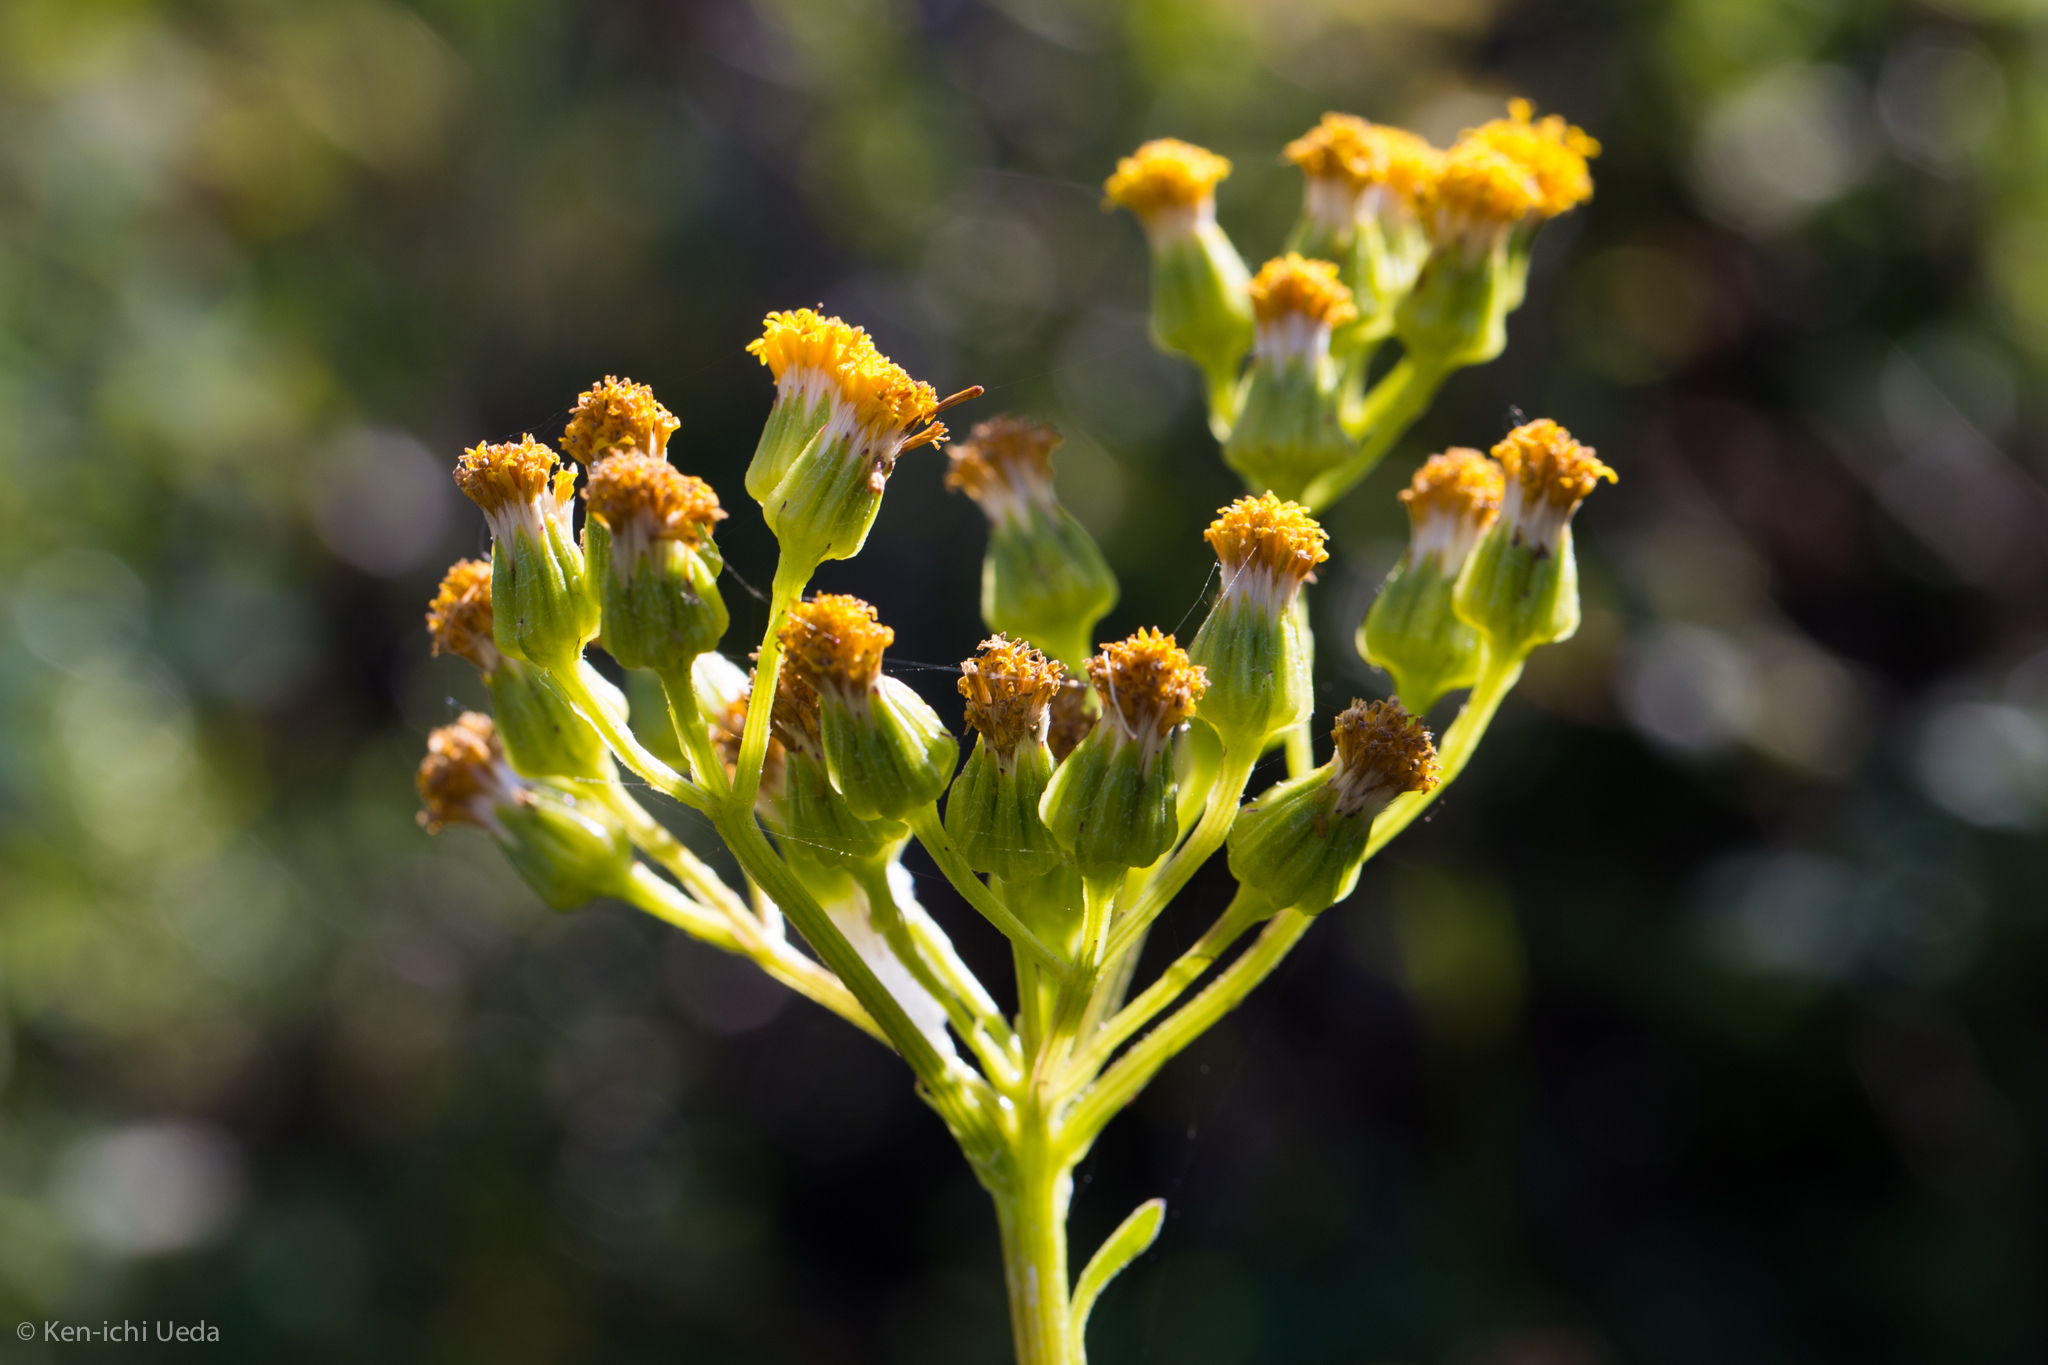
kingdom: Plantae
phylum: Tracheophyta
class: Magnoliopsida
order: Asterales
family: Asteraceae
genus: Senecio
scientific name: Senecio aronicoides
